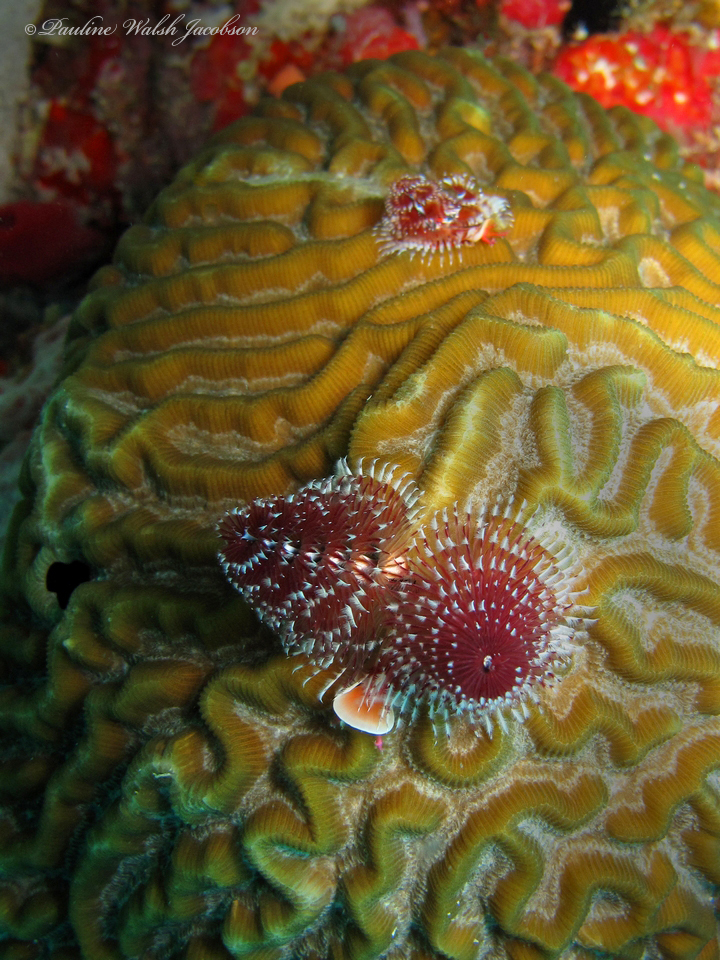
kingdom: Animalia
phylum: Annelida
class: Polychaeta
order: Sabellida
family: Serpulidae
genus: Spirobranchus
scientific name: Spirobranchus giganteus
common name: Christmas tree worm
